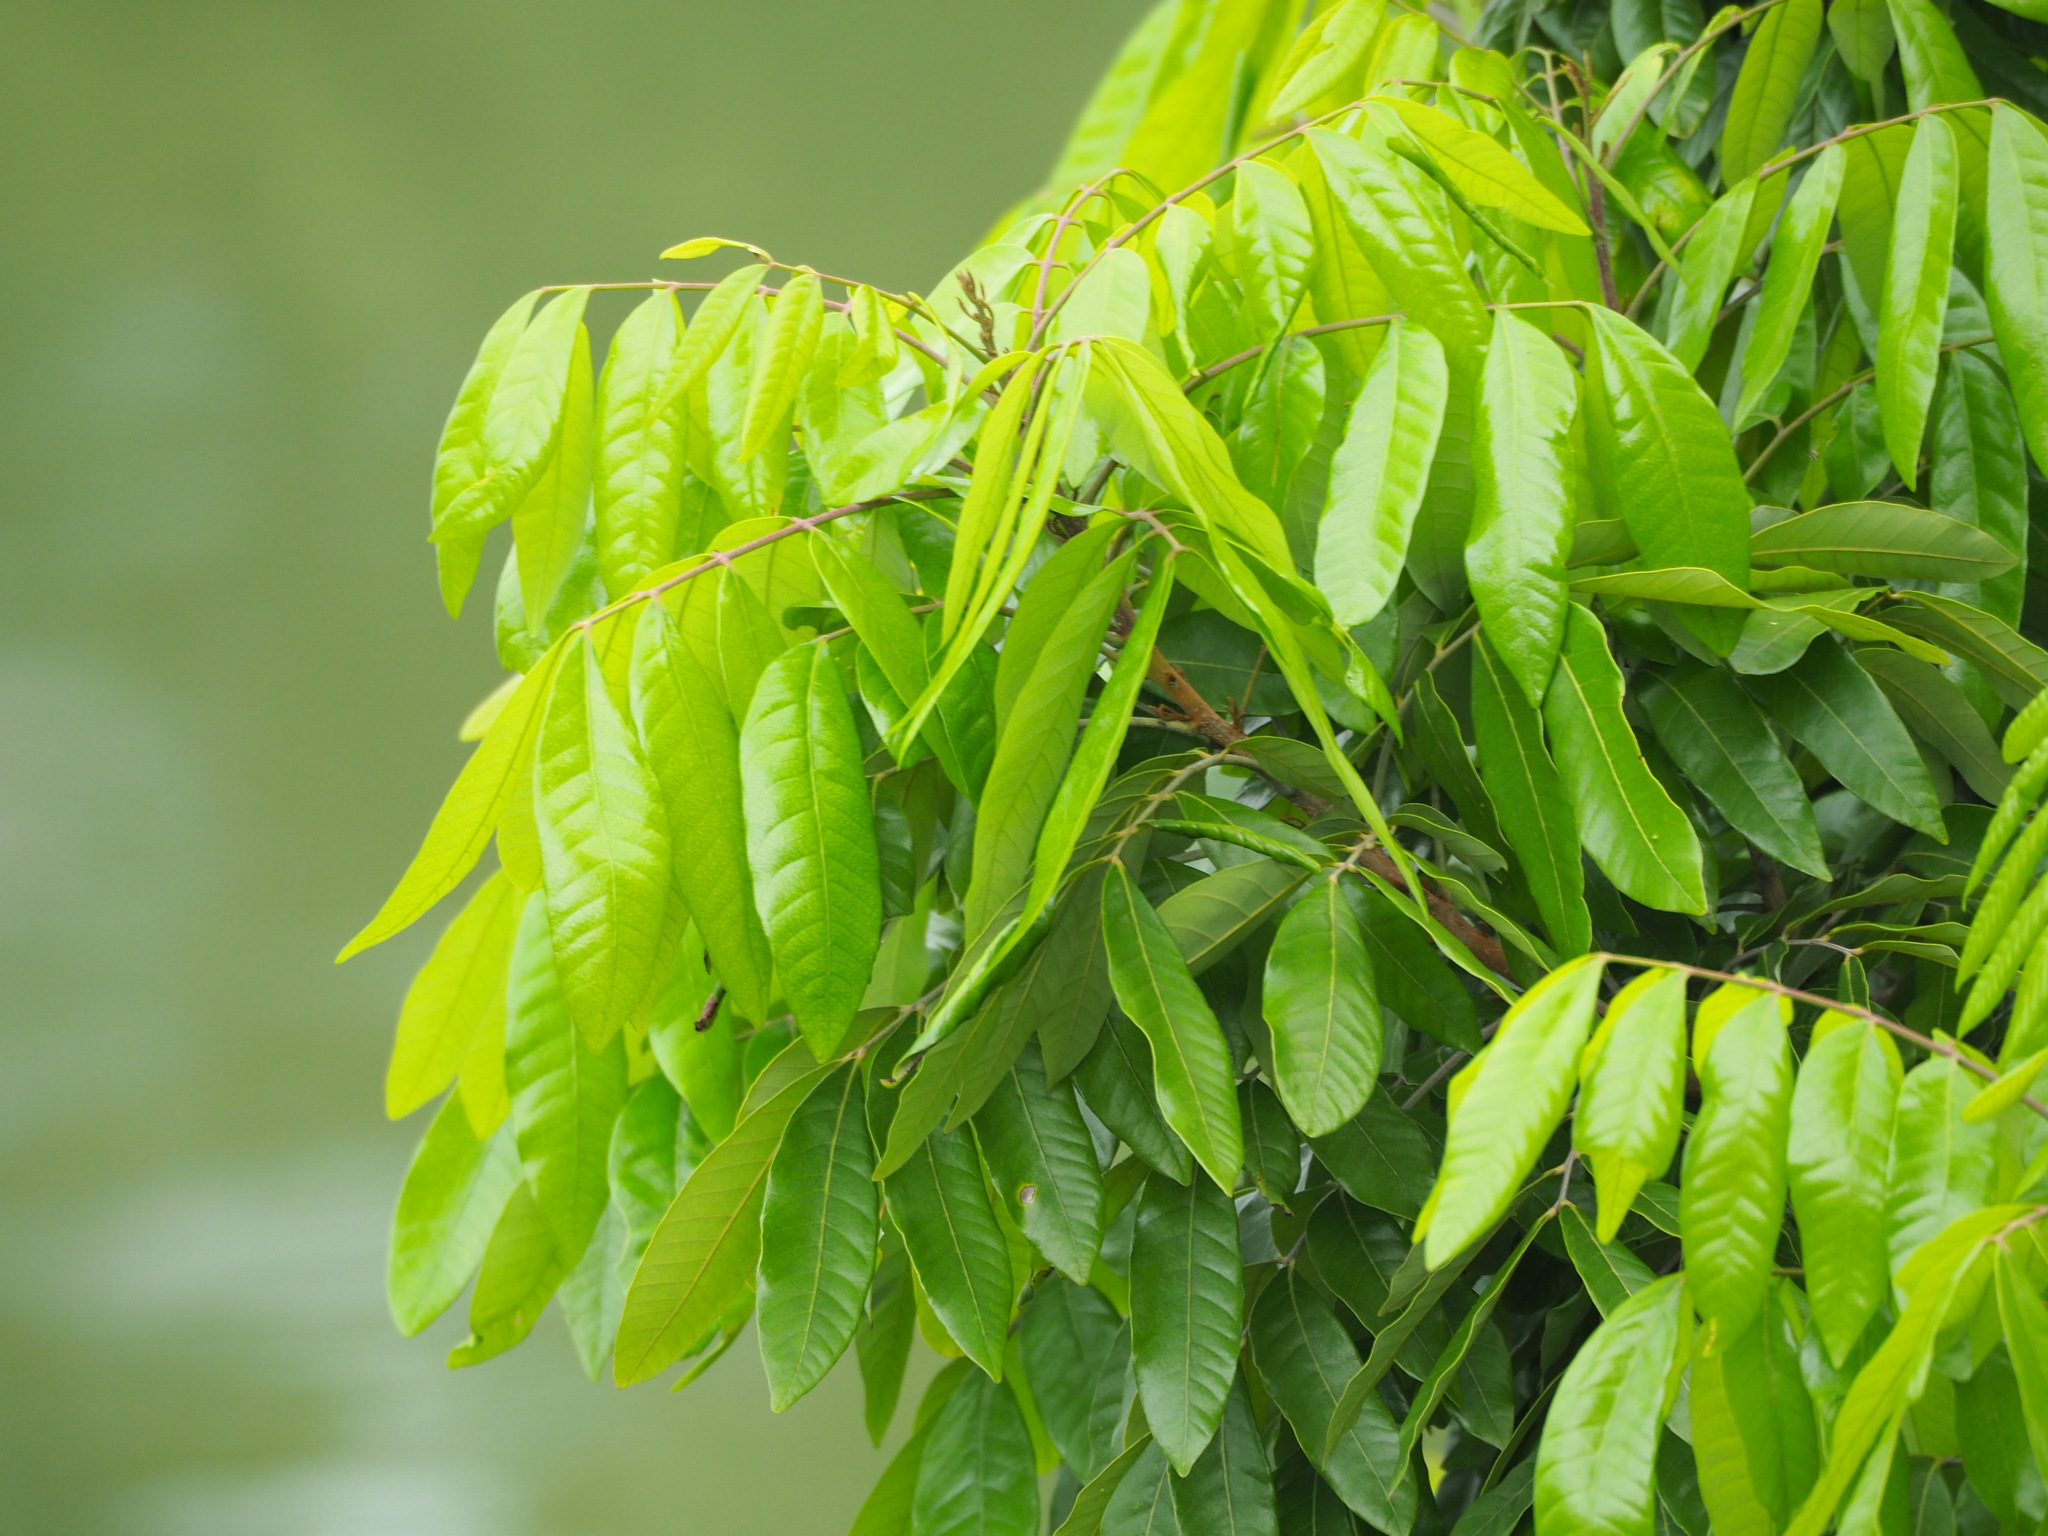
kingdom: Plantae
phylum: Tracheophyta
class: Magnoliopsida
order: Sapindales
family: Sapindaceae
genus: Dimocarpus
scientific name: Dimocarpus longan
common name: Longan
